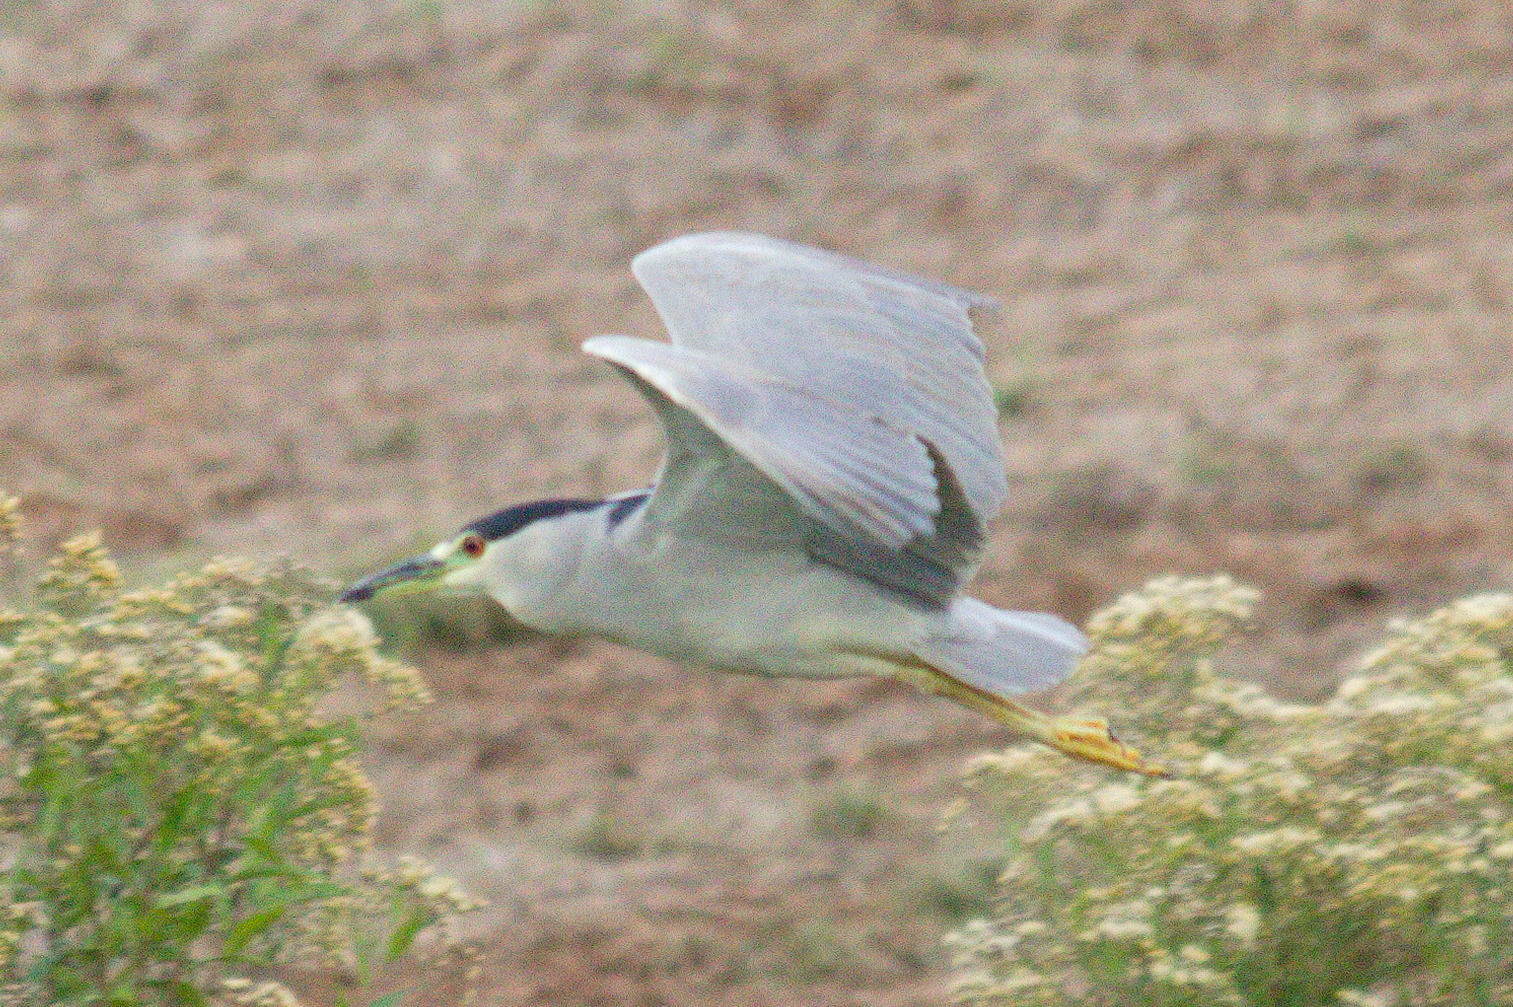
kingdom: Animalia
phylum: Chordata
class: Aves
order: Pelecaniformes
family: Ardeidae
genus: Nycticorax
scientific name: Nycticorax nycticorax
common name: Black-crowned night heron
